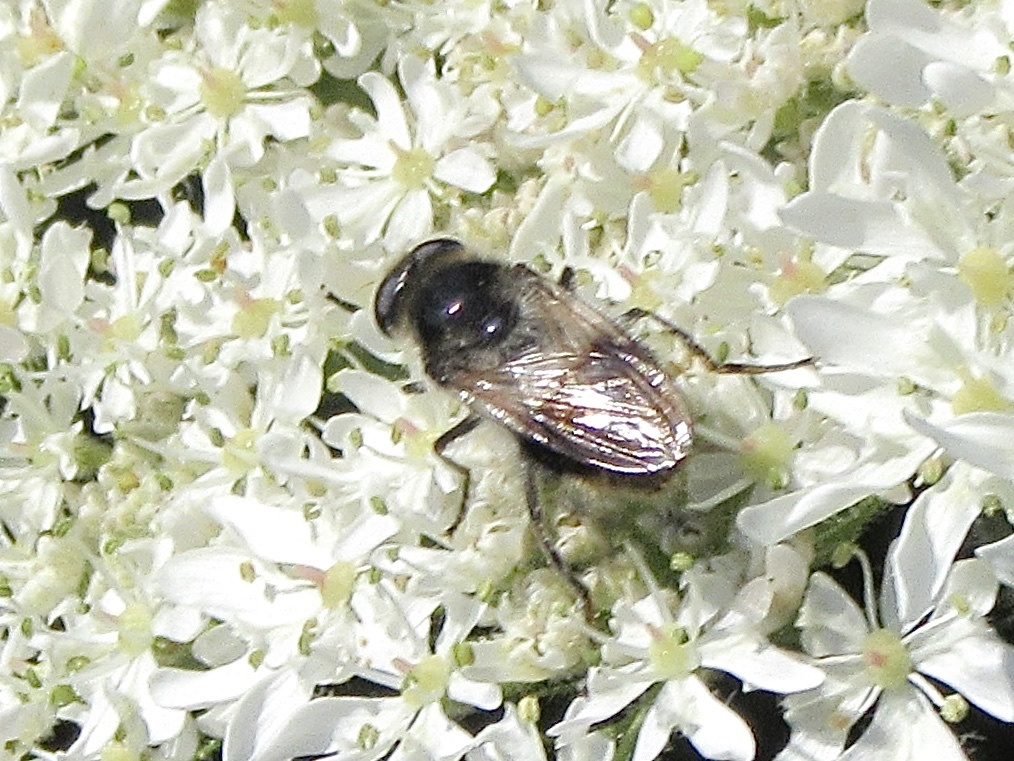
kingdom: Animalia
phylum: Arthropoda
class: Insecta
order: Diptera
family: Syrphidae
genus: Cheilosia
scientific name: Cheilosia illustrata
